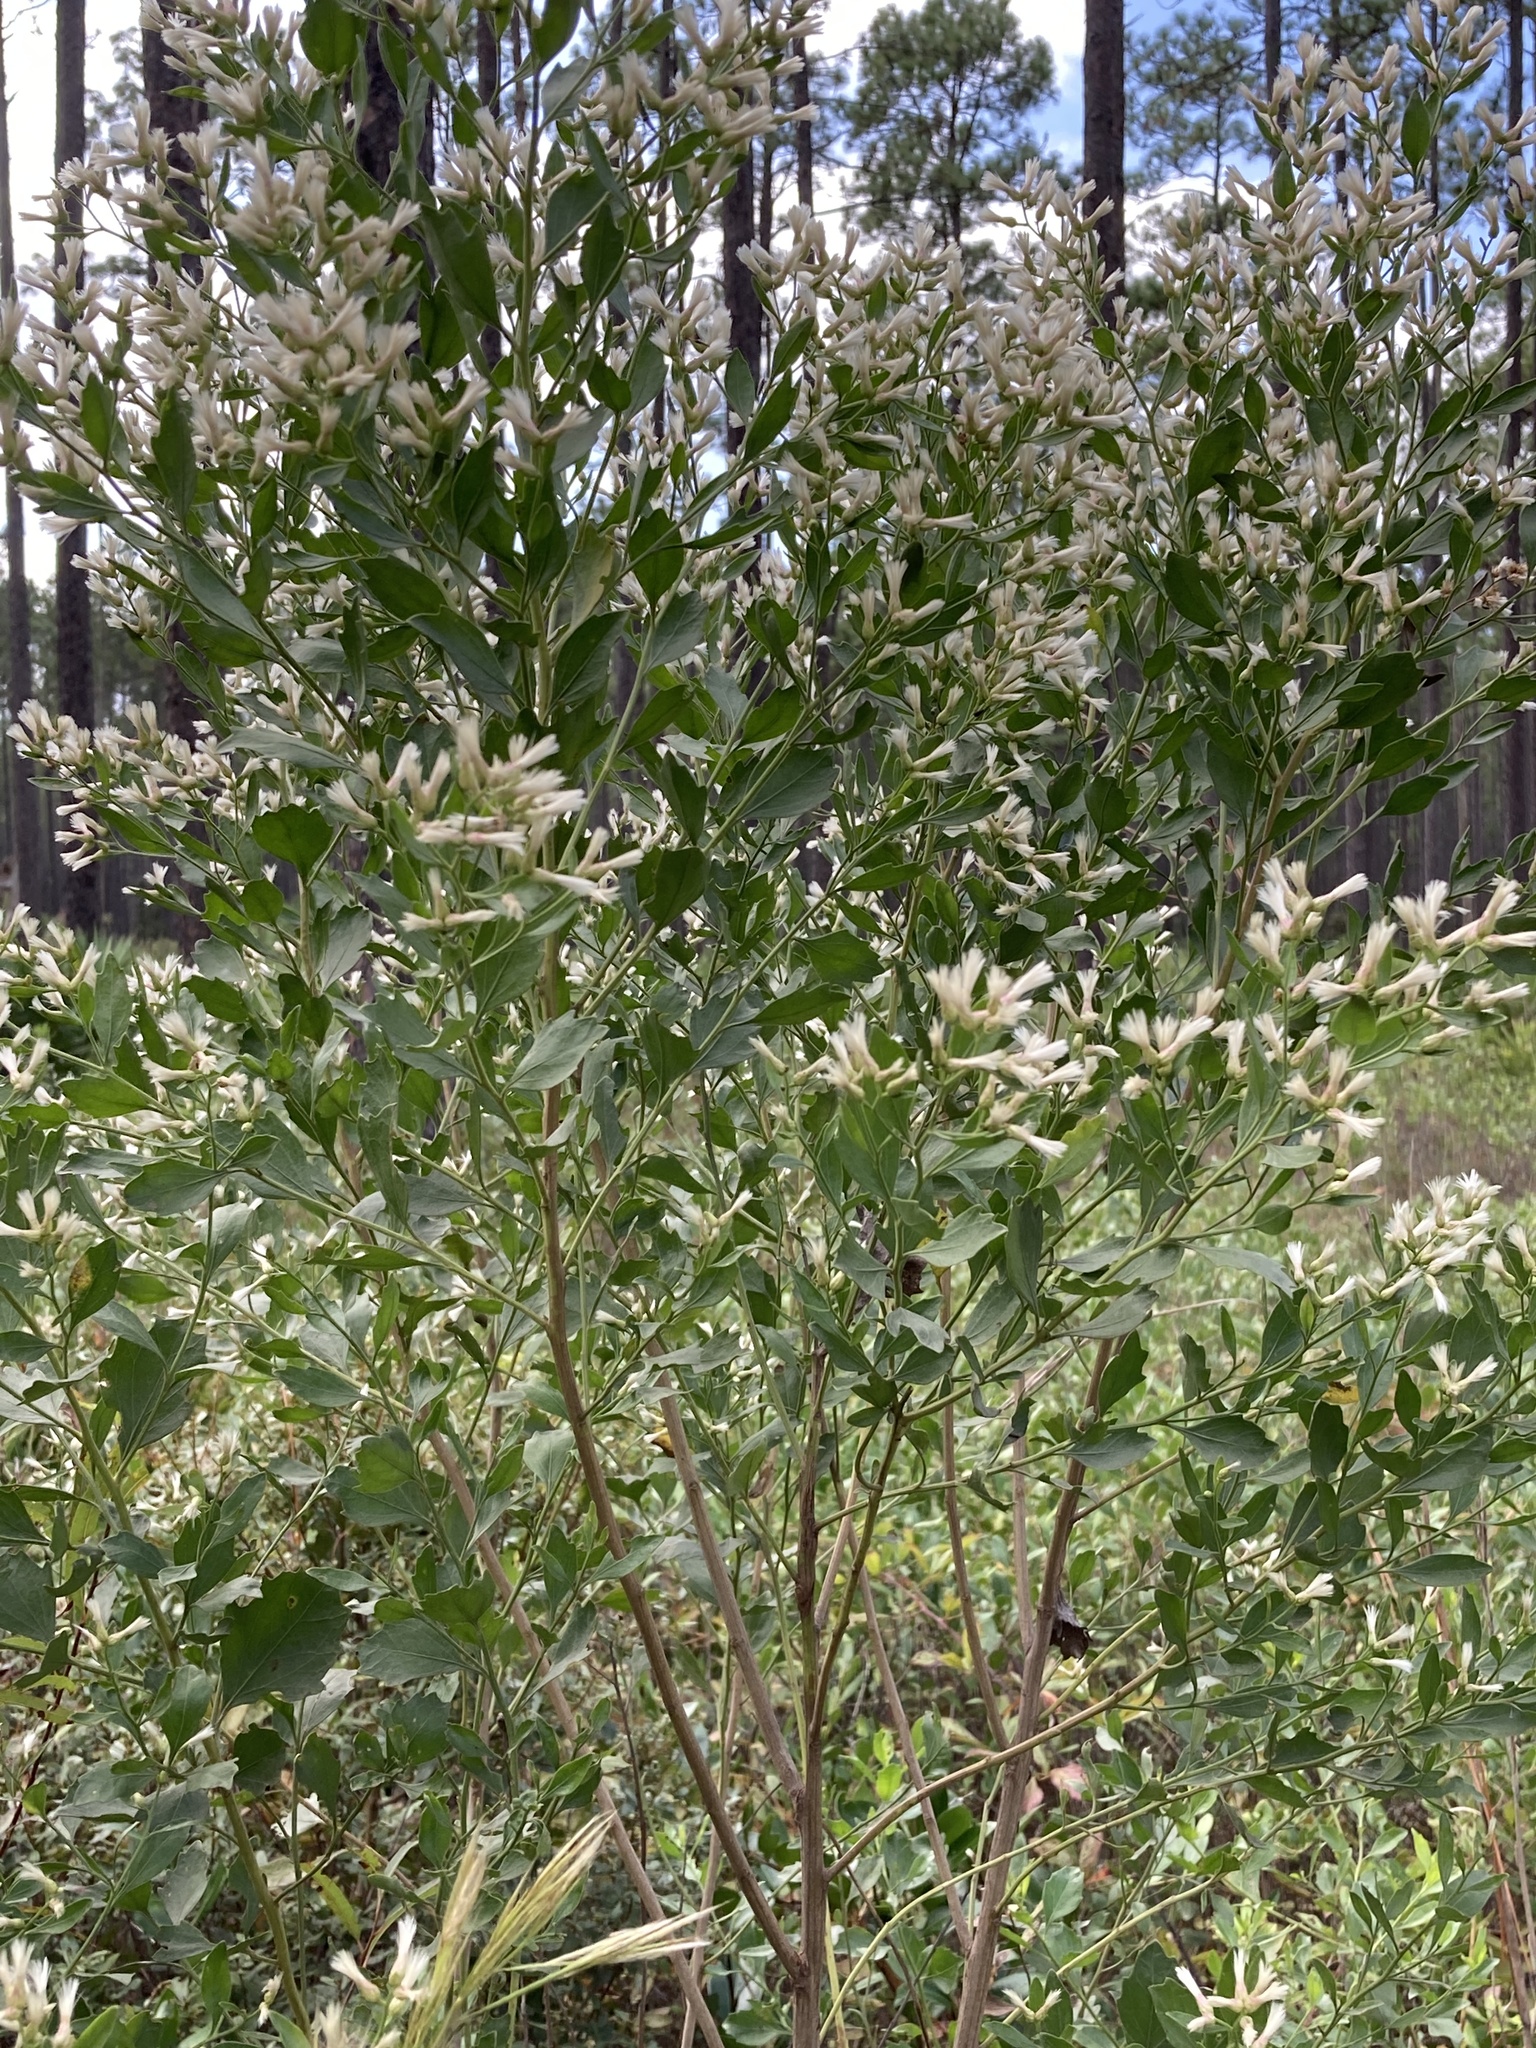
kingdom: Plantae
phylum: Tracheophyta
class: Magnoliopsida
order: Asterales
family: Asteraceae
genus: Baccharis
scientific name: Baccharis halimifolia
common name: Eastern baccharis
